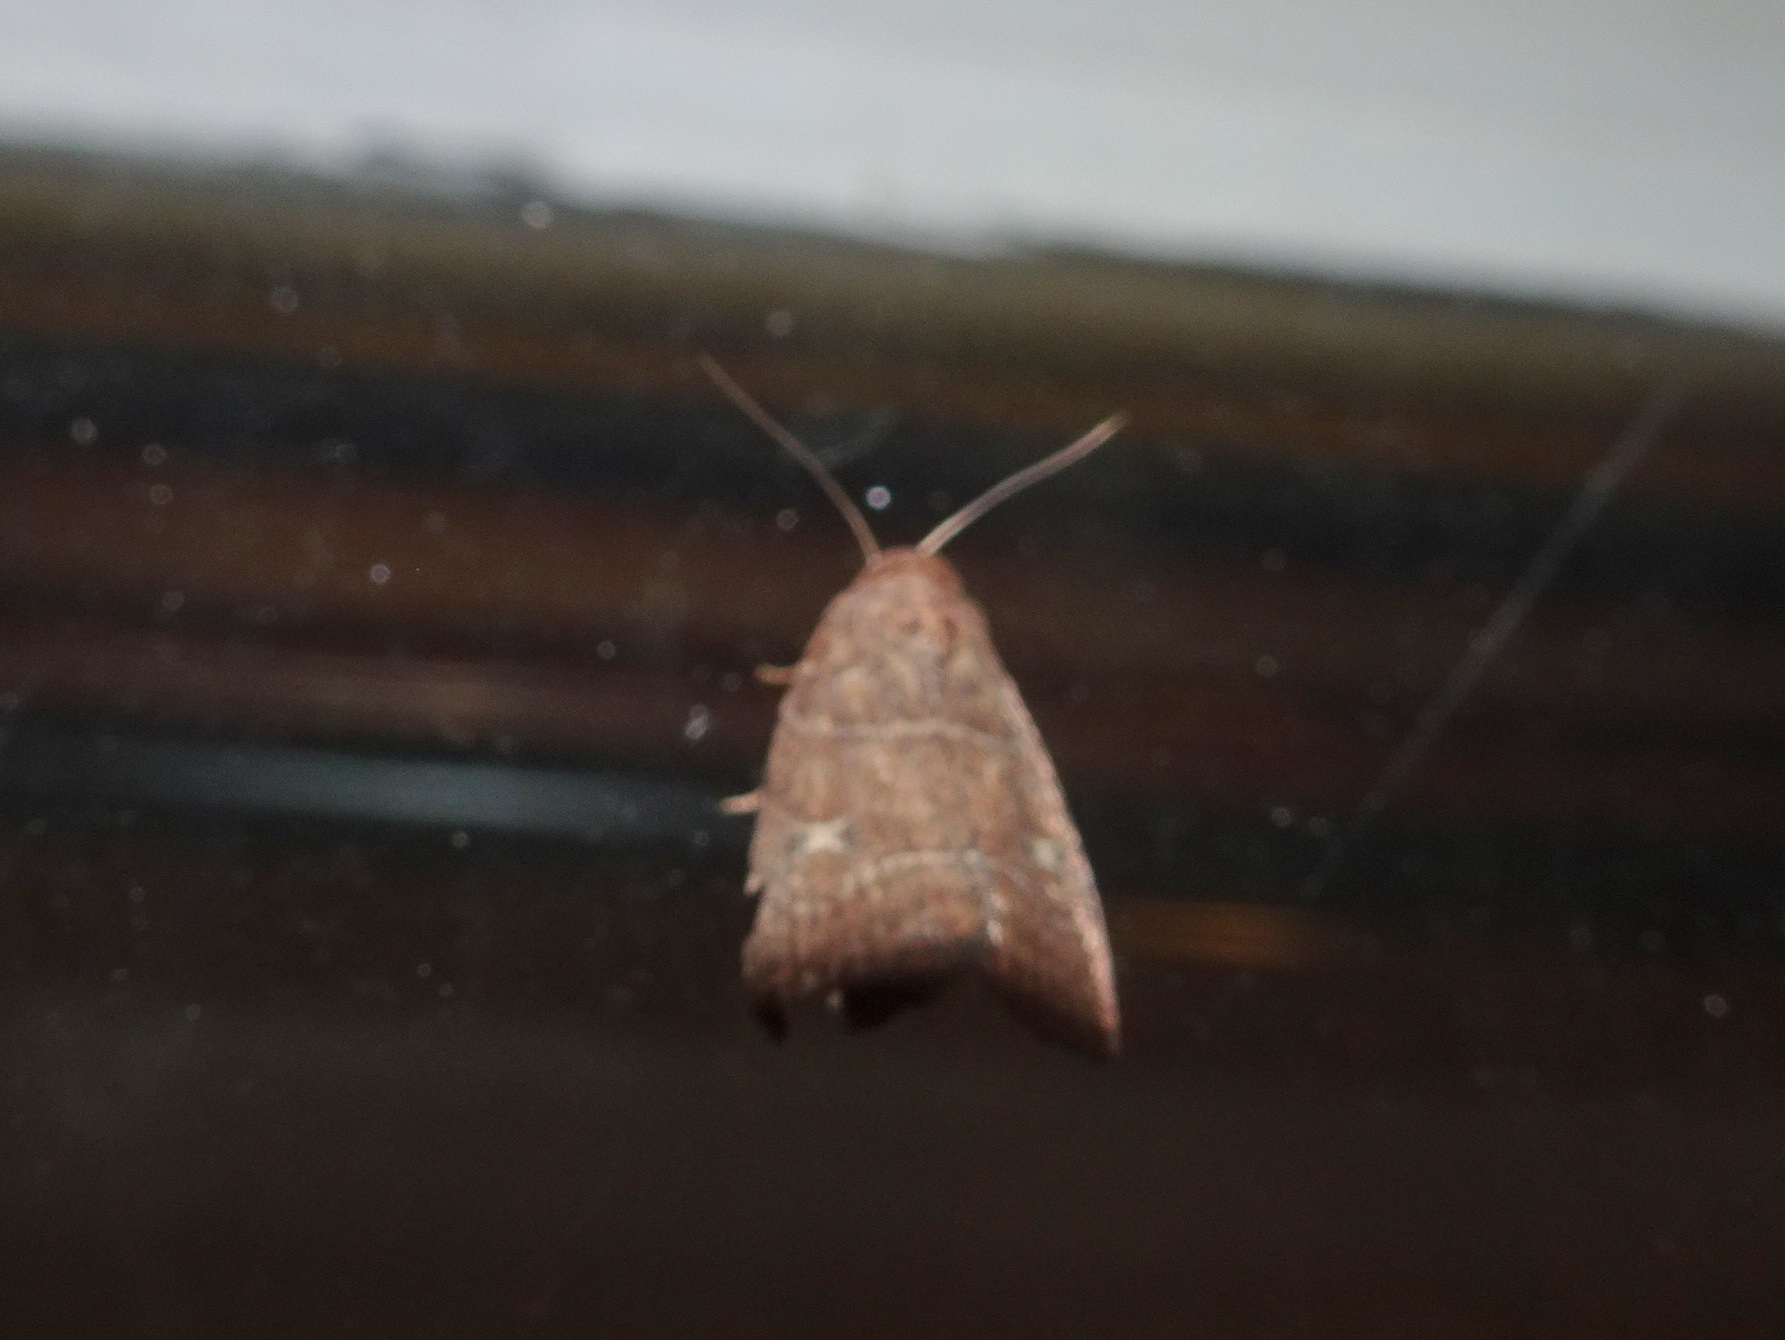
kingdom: Animalia
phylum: Arthropoda
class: Insecta
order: Lepidoptera
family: Noctuidae
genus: Elaphria
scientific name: Elaphria grata
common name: Grateful midget moth
